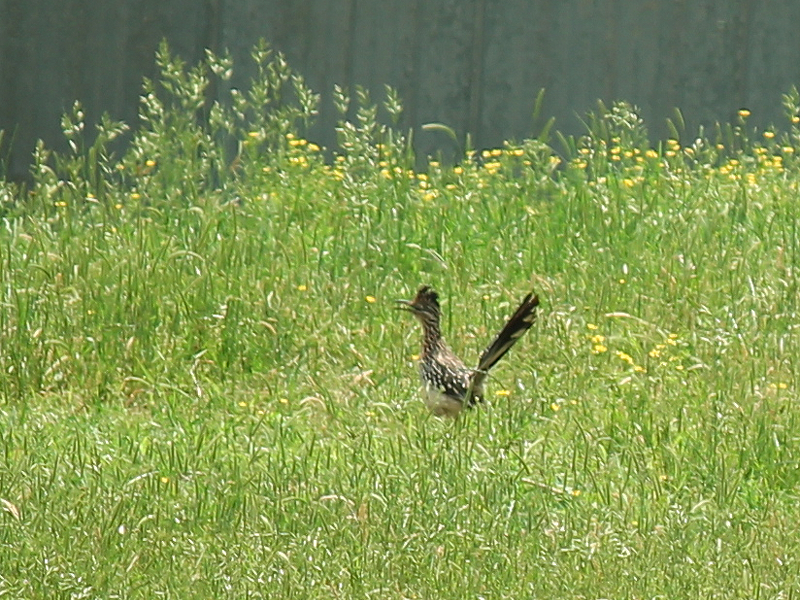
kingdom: Animalia
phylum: Chordata
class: Aves
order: Cuculiformes
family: Cuculidae
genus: Geococcyx
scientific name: Geococcyx californianus
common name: Greater roadrunner
